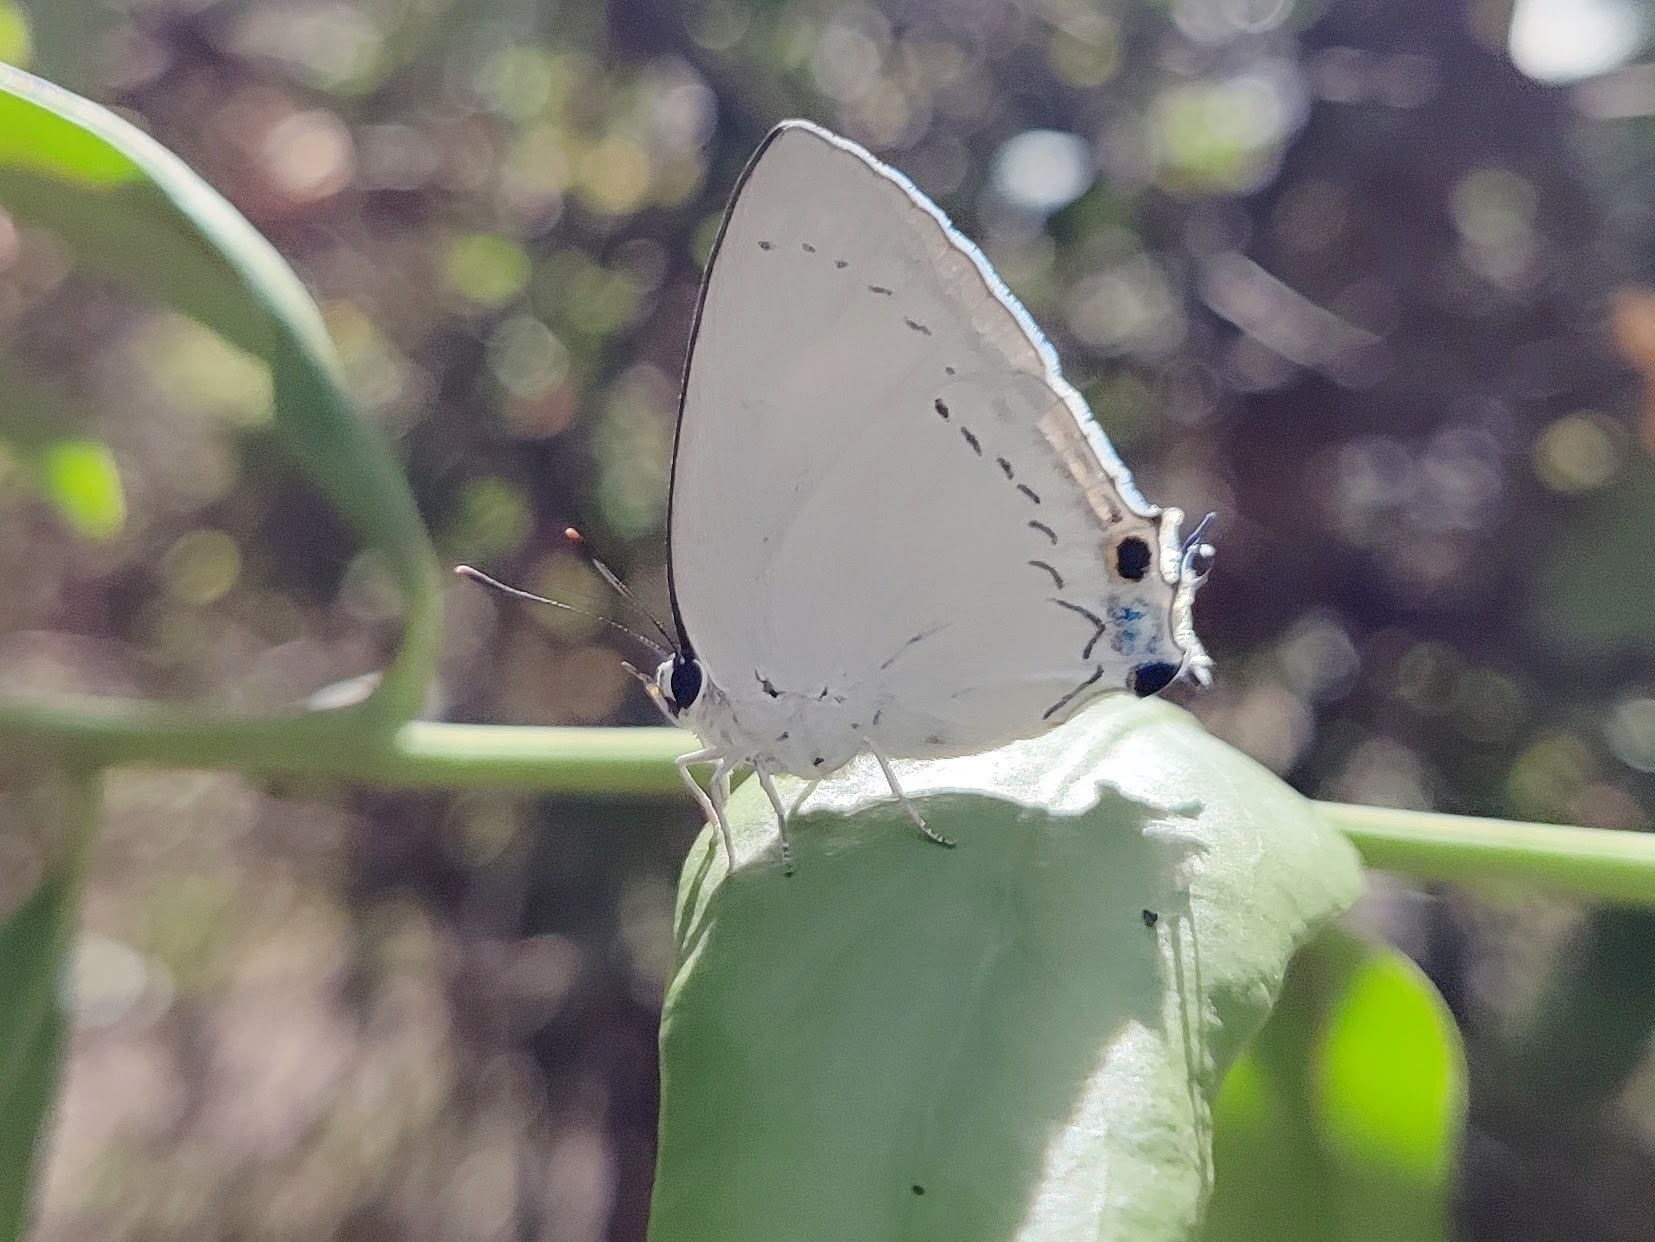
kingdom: Animalia
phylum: Arthropoda
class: Insecta
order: Lepidoptera
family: Lycaenidae
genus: Tajuria
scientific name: Tajuria cippus
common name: Peacock royal
